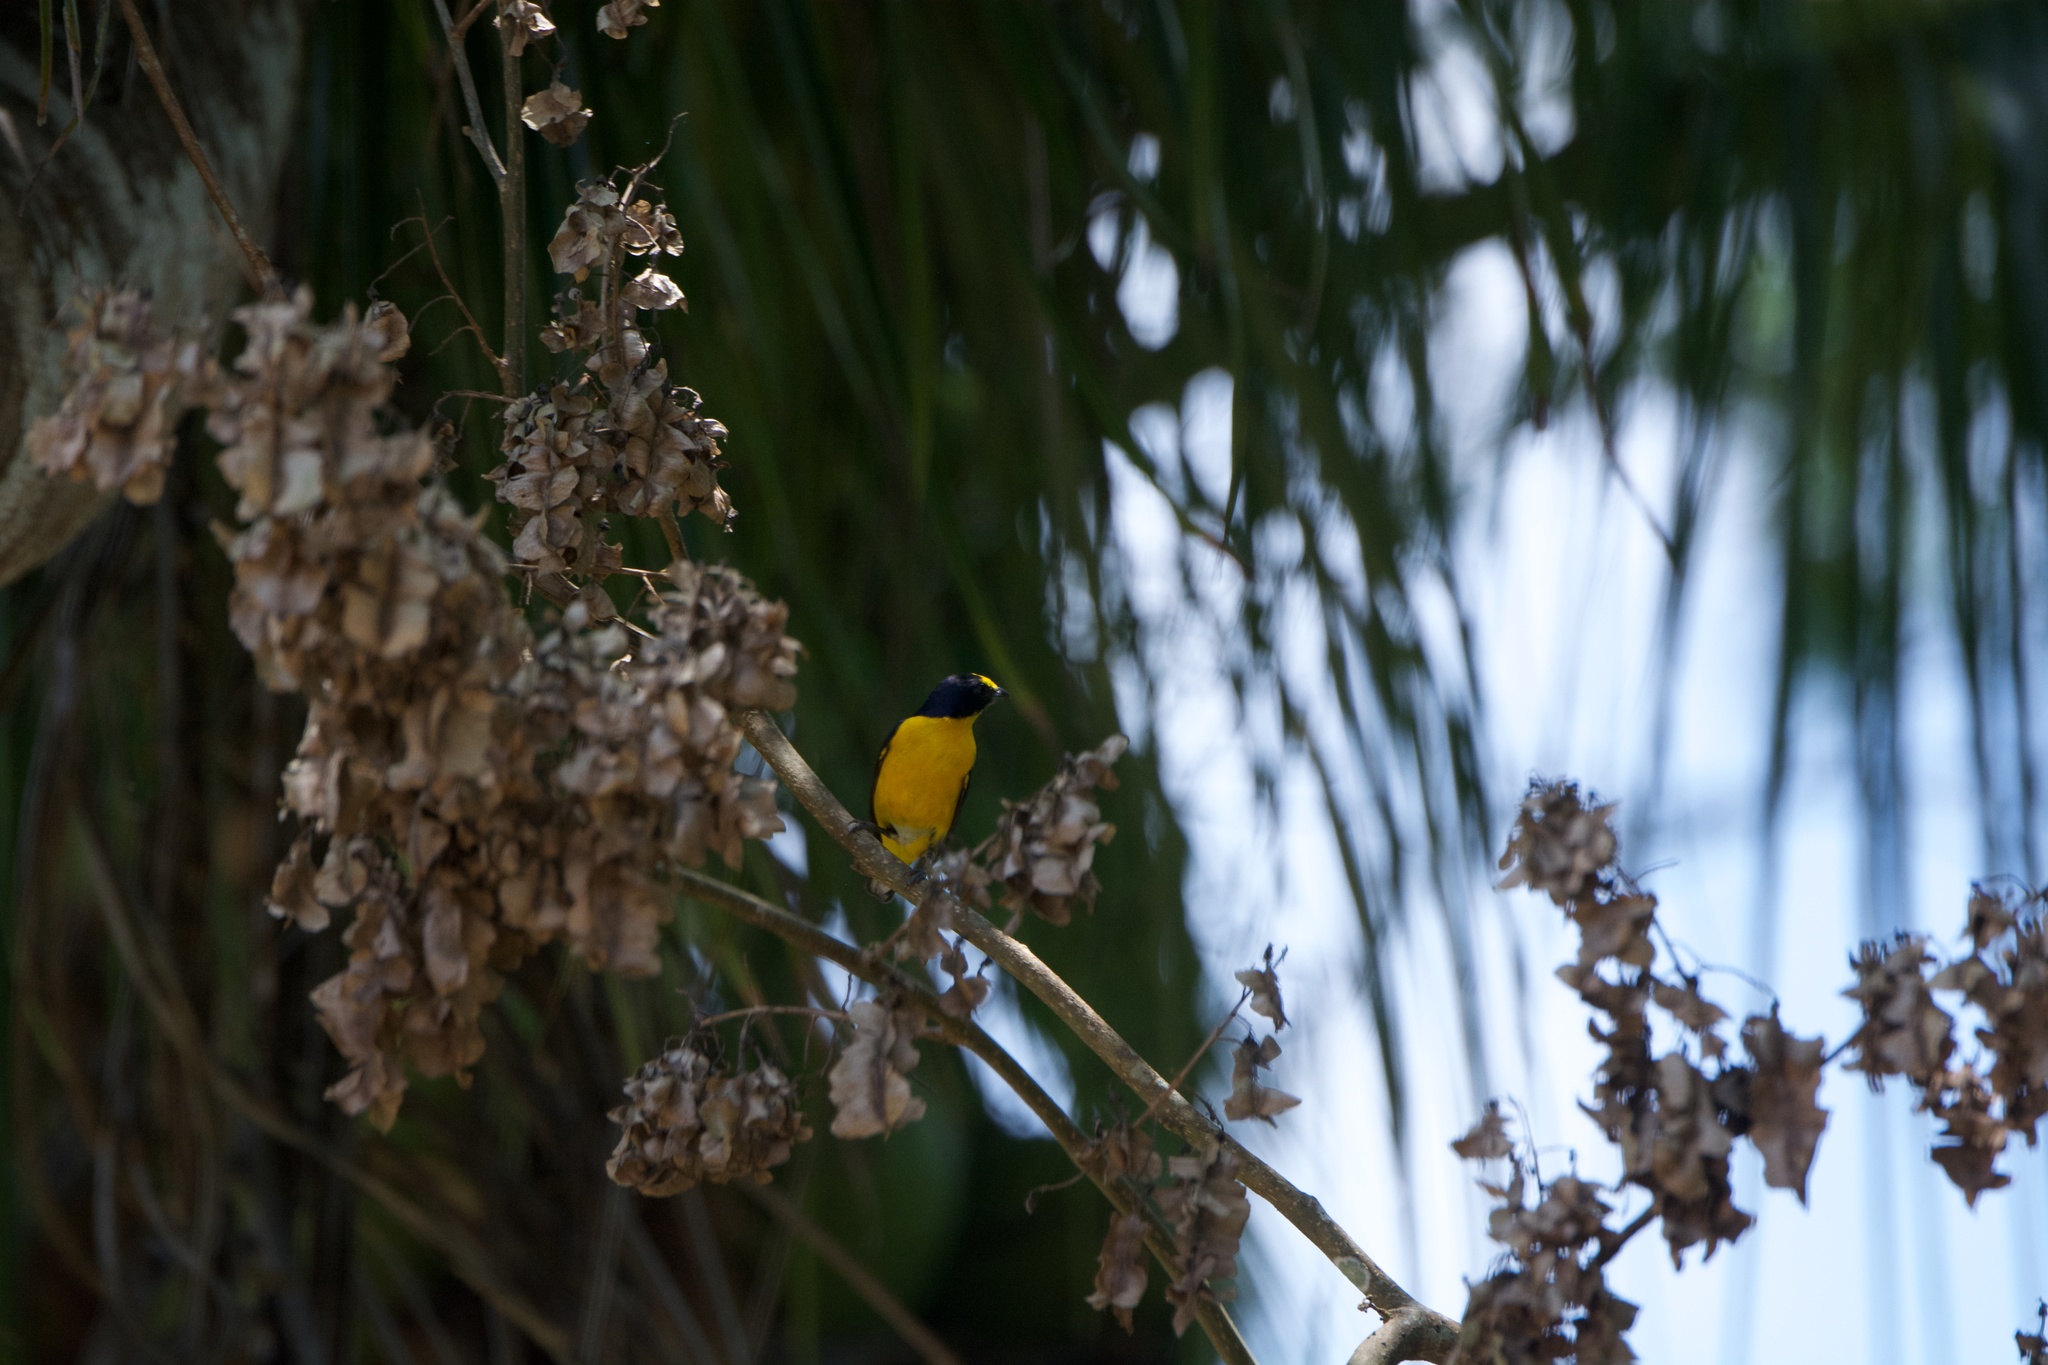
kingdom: Animalia
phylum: Chordata
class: Aves
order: Passeriformes
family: Fringillidae
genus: Euphonia
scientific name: Euphonia hirundinacea
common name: Yellow-throated euphonia
